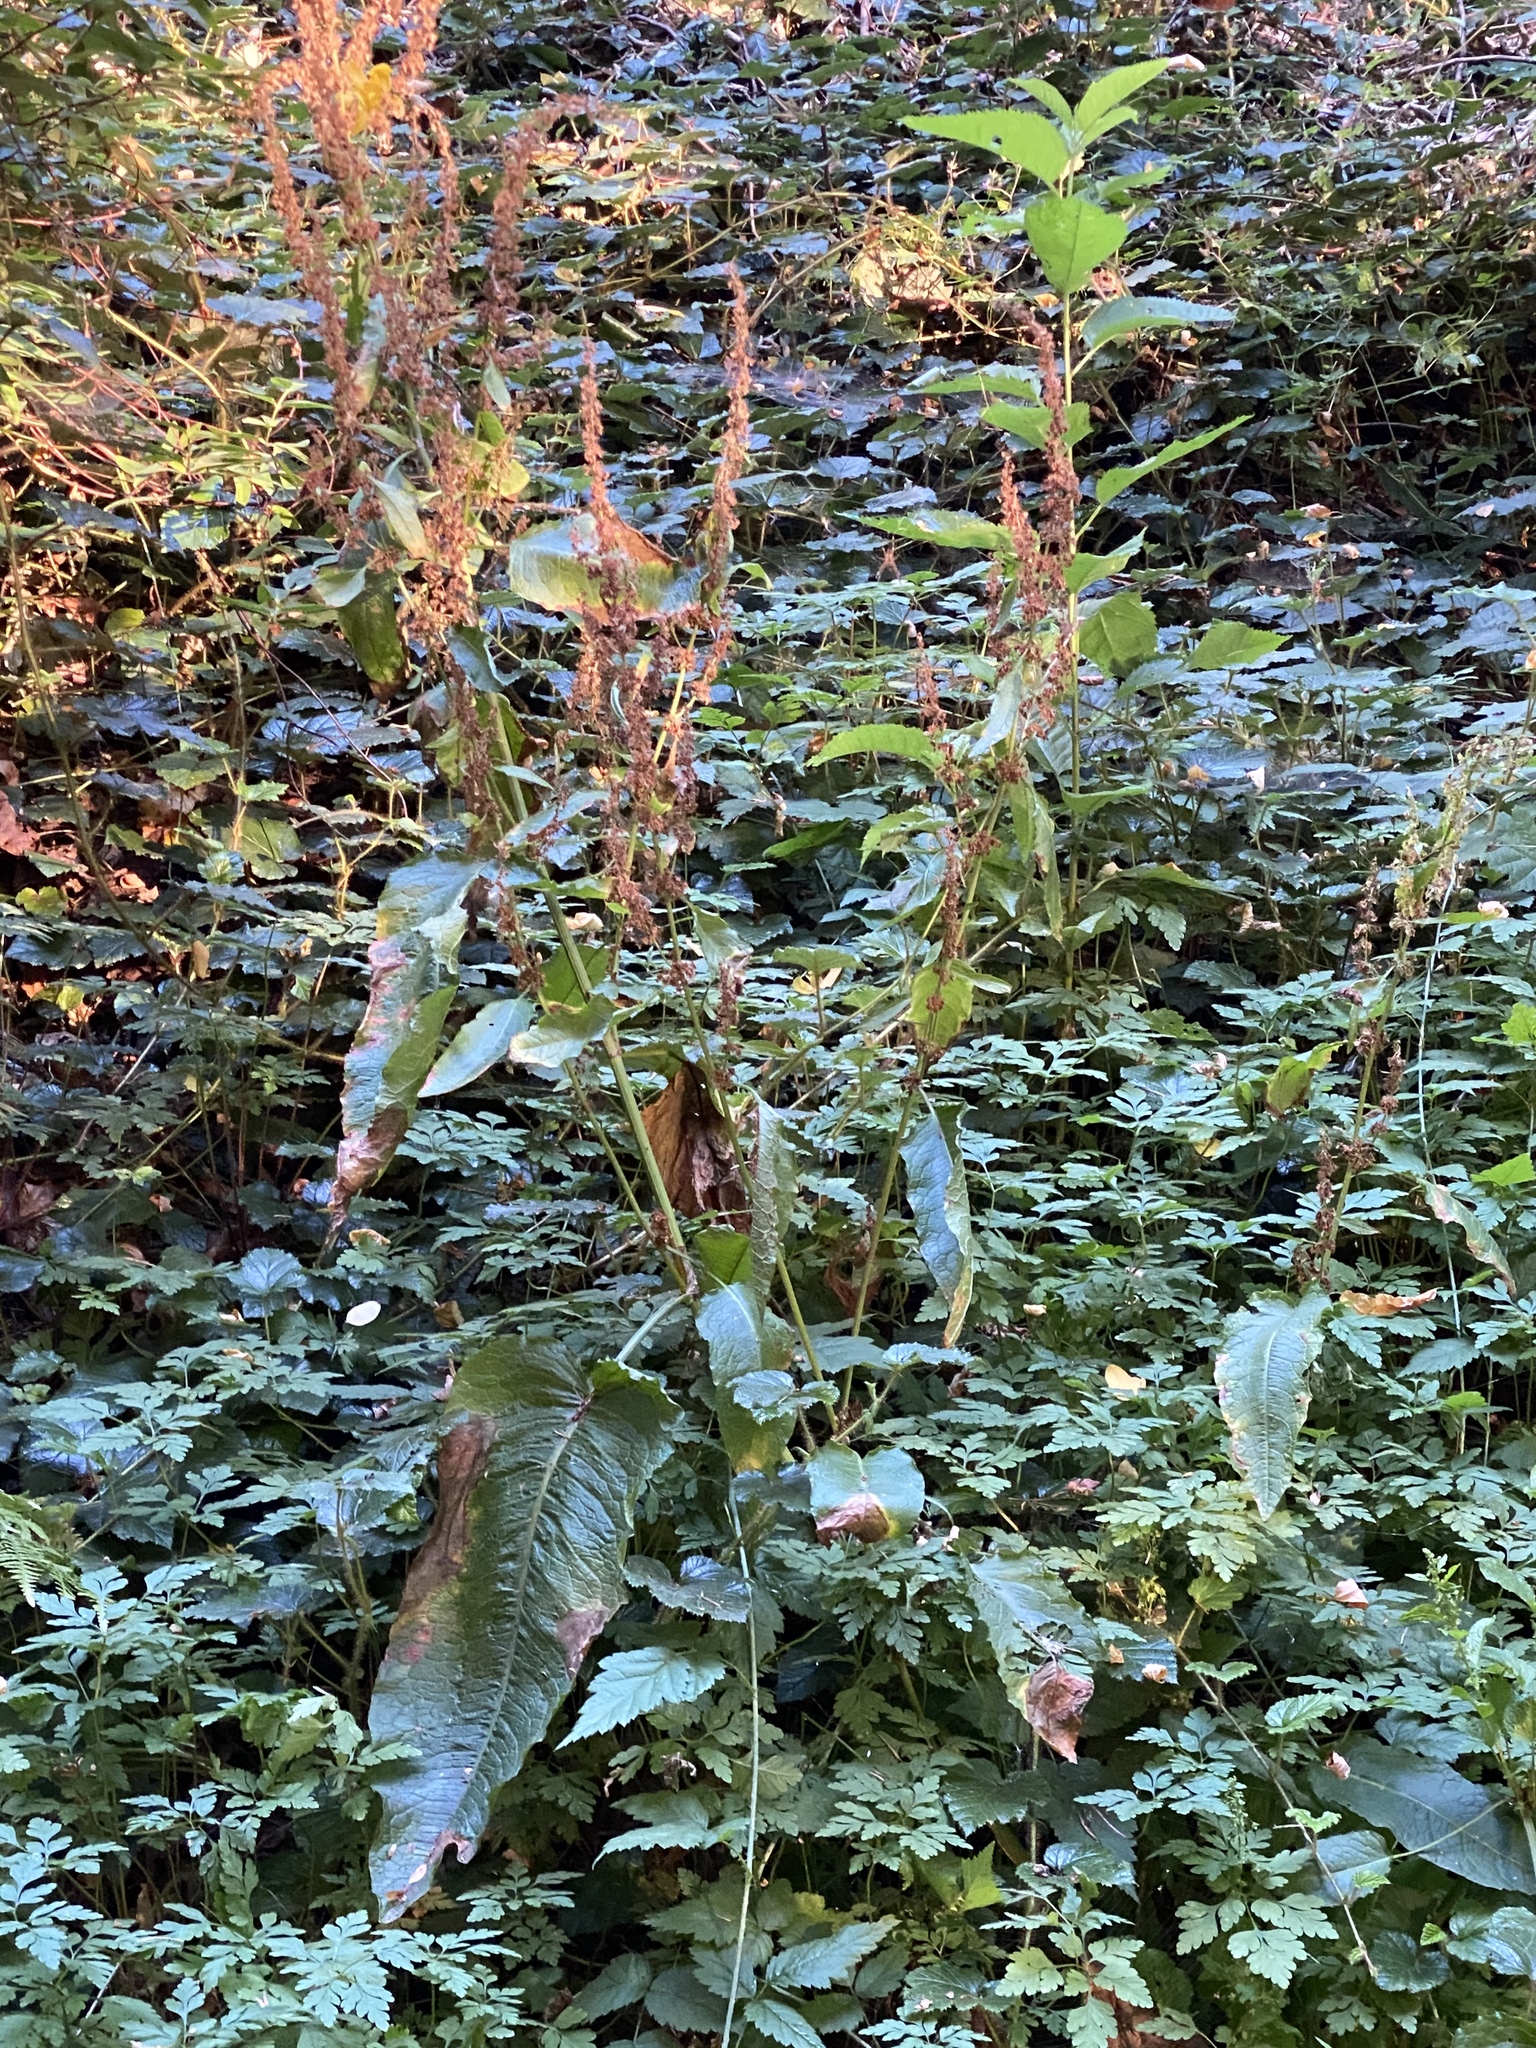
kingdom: Plantae
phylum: Tracheophyta
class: Magnoliopsida
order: Caryophyllales
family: Polygonaceae
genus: Rumex
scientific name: Rumex obtusifolius
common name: Bitter dock
